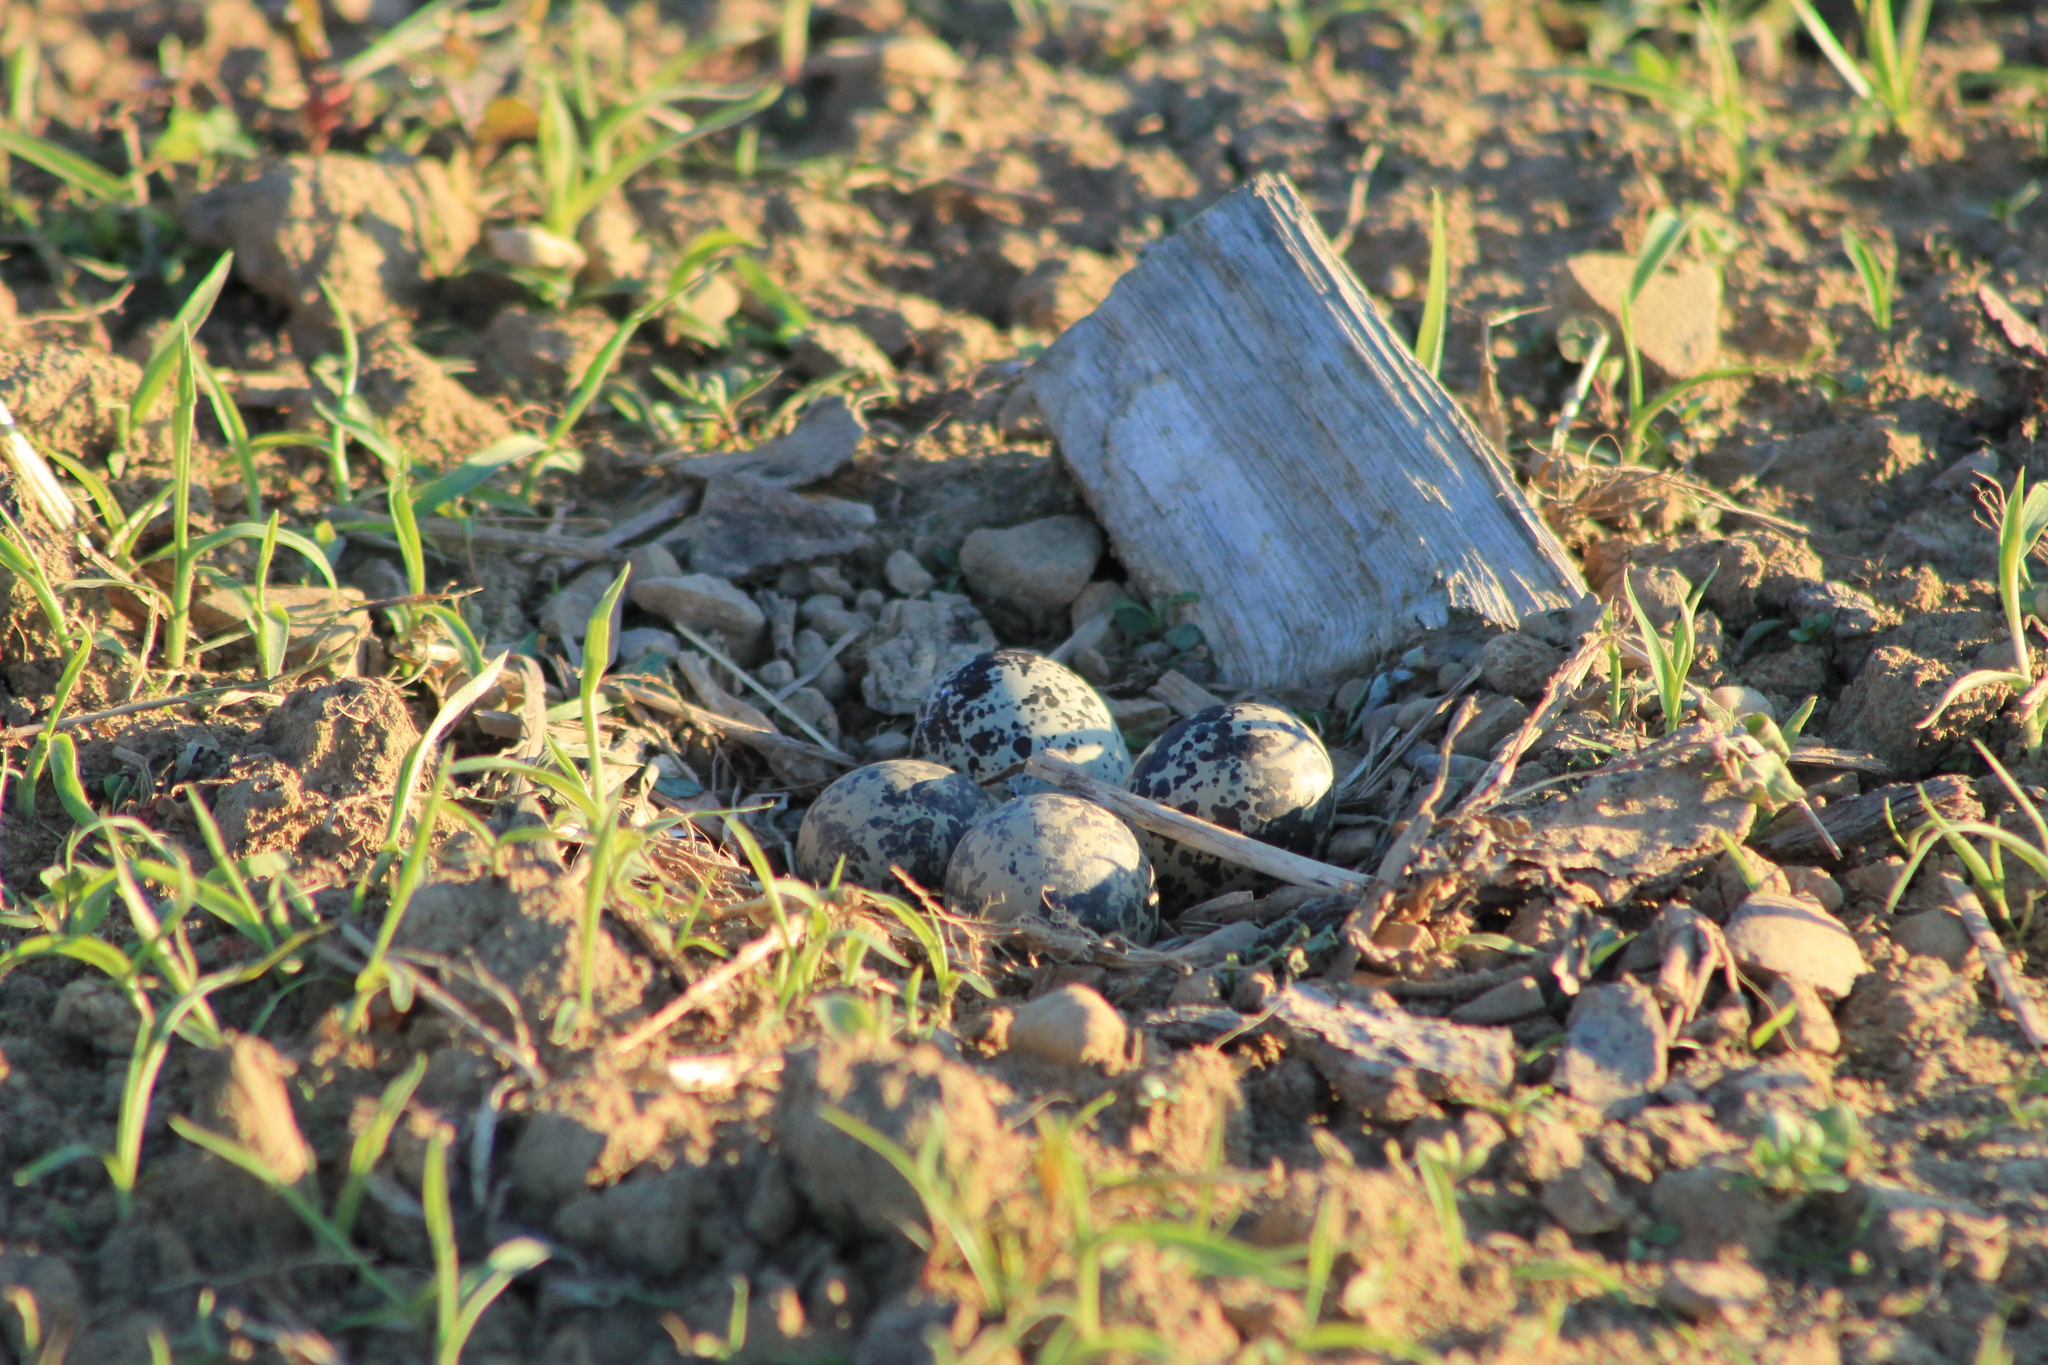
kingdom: Animalia
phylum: Chordata
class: Aves
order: Charadriiformes
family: Charadriidae
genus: Charadrius
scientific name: Charadrius vociferus
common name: Killdeer
